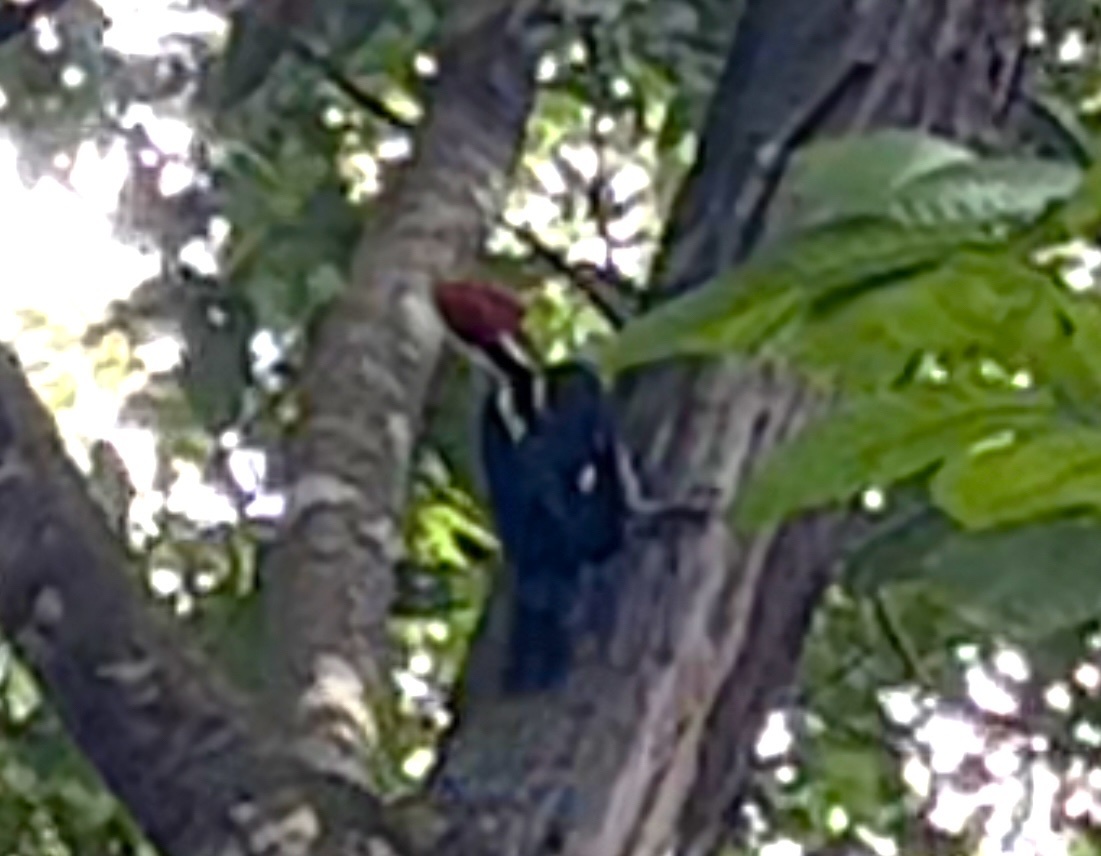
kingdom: Animalia
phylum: Chordata
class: Aves
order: Piciformes
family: Picidae
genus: Campephilus
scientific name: Campephilus guatemalensis
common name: Pale-billed woodpecker
